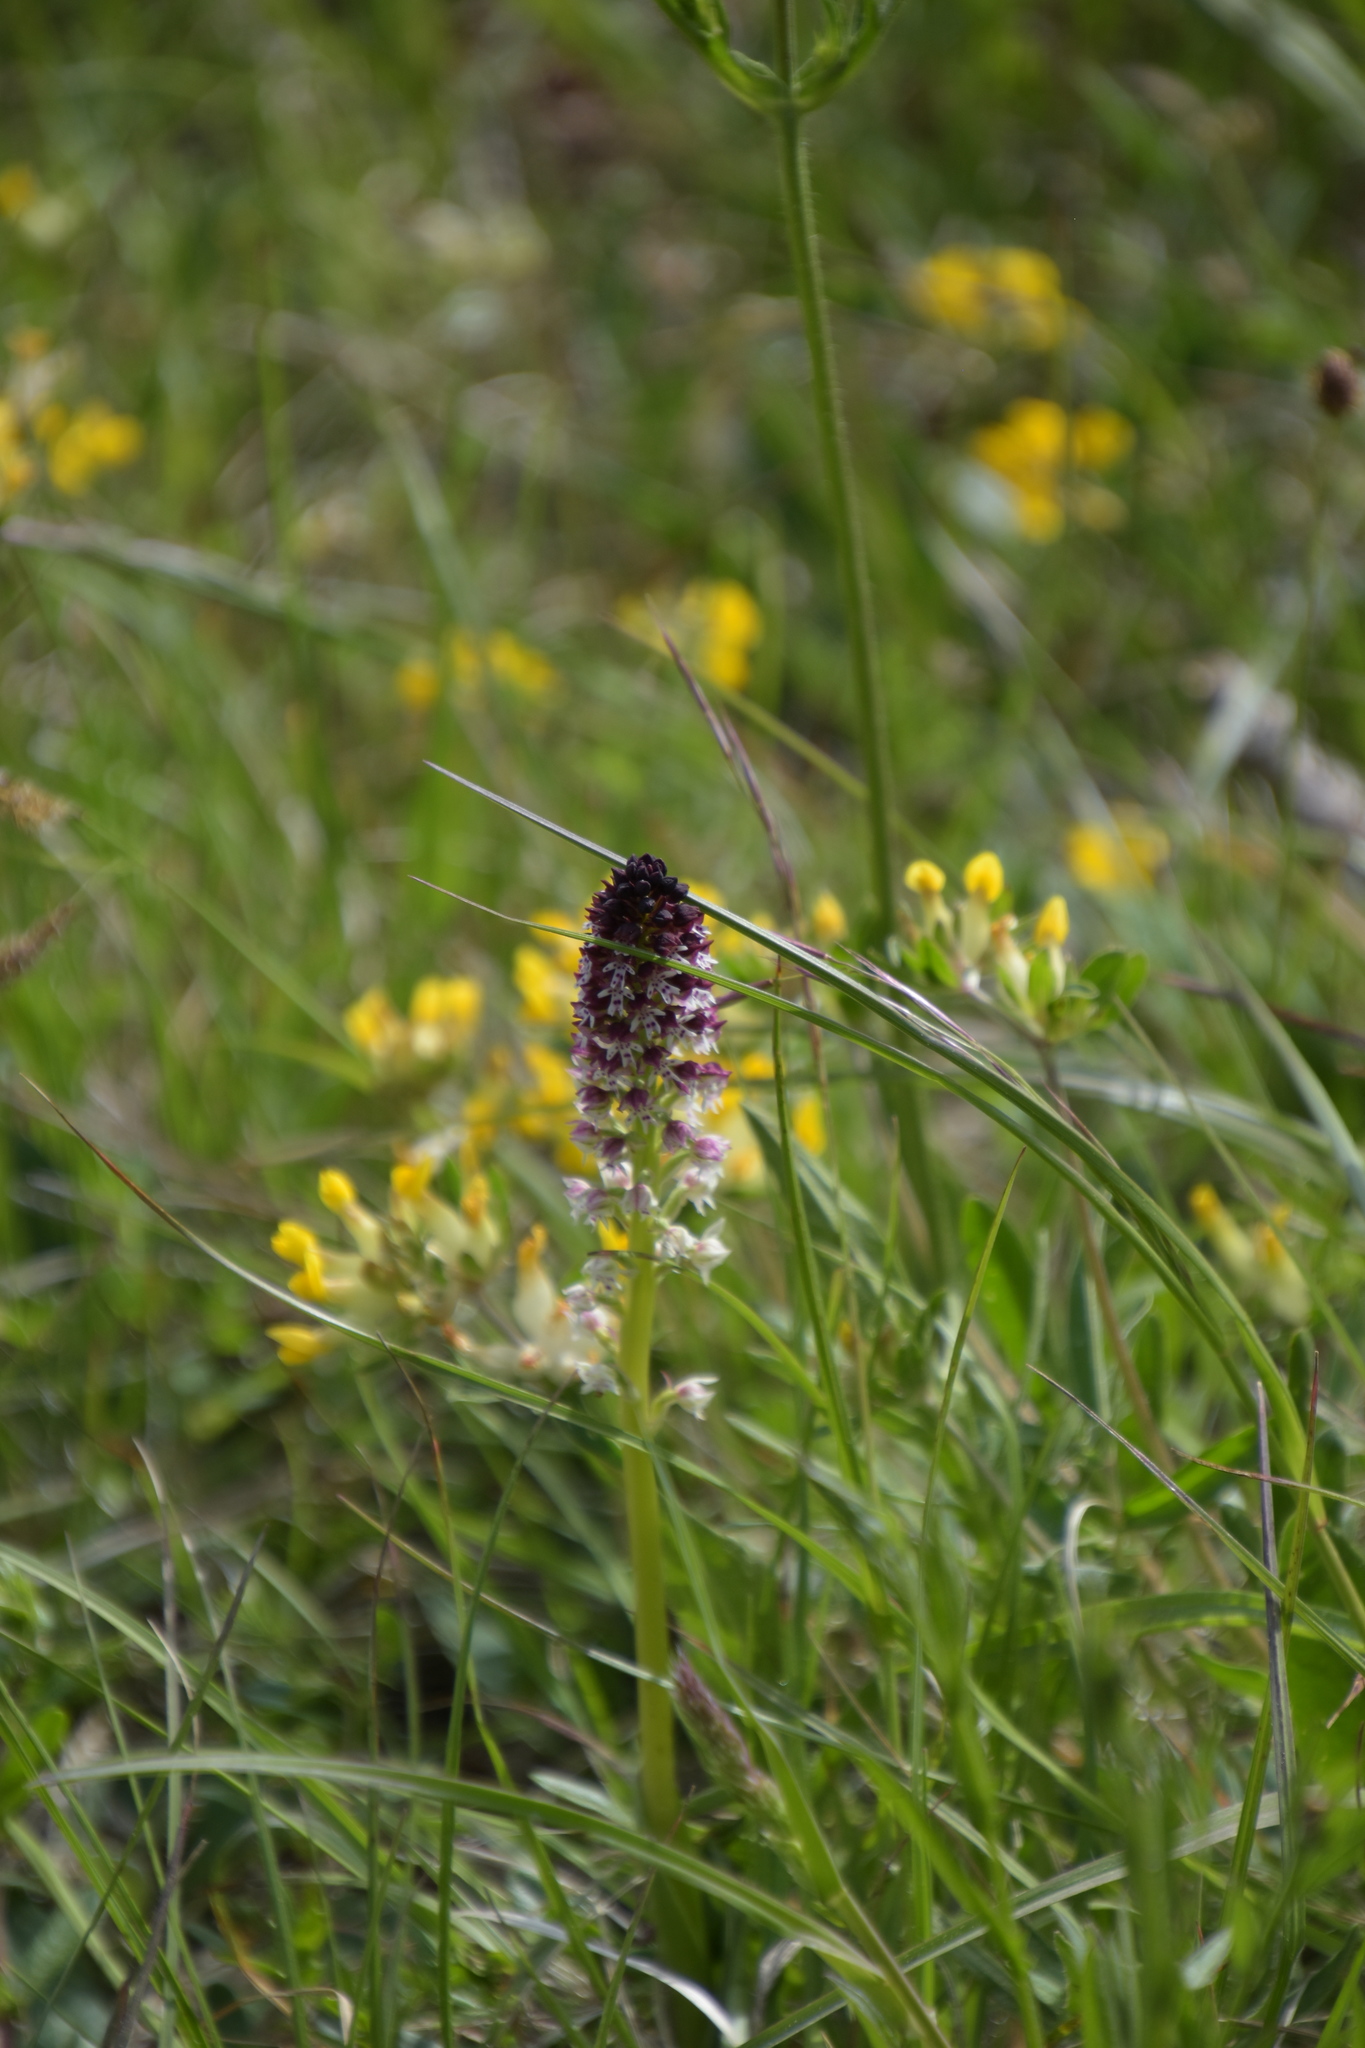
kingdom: Plantae
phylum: Tracheophyta
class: Liliopsida
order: Asparagales
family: Orchidaceae
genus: Neotinea
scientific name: Neotinea ustulata
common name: Burnt orchid
